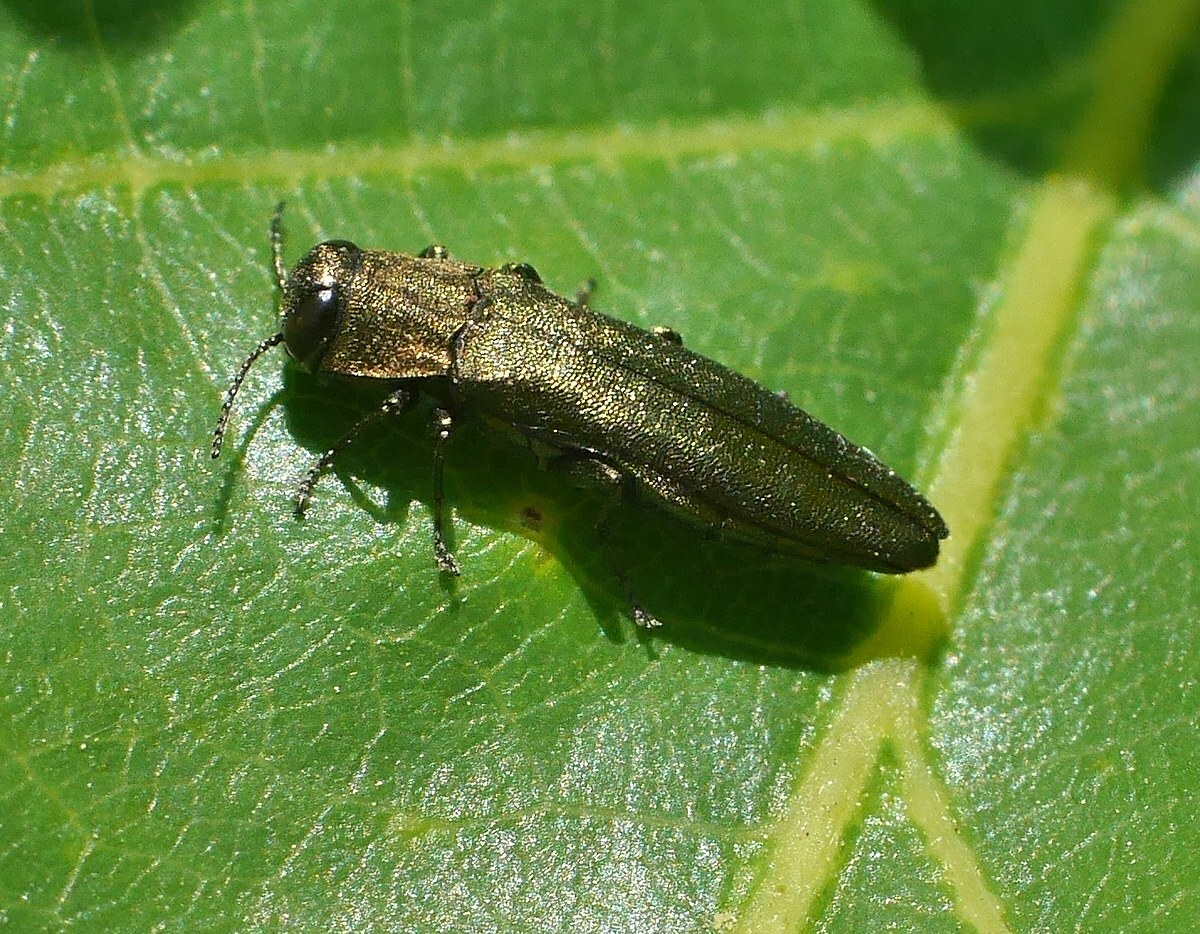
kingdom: Animalia
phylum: Arthropoda
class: Insecta
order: Coleoptera
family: Buprestidae
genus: Agrilus
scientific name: Agrilus sulcicollis
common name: European oak borer
